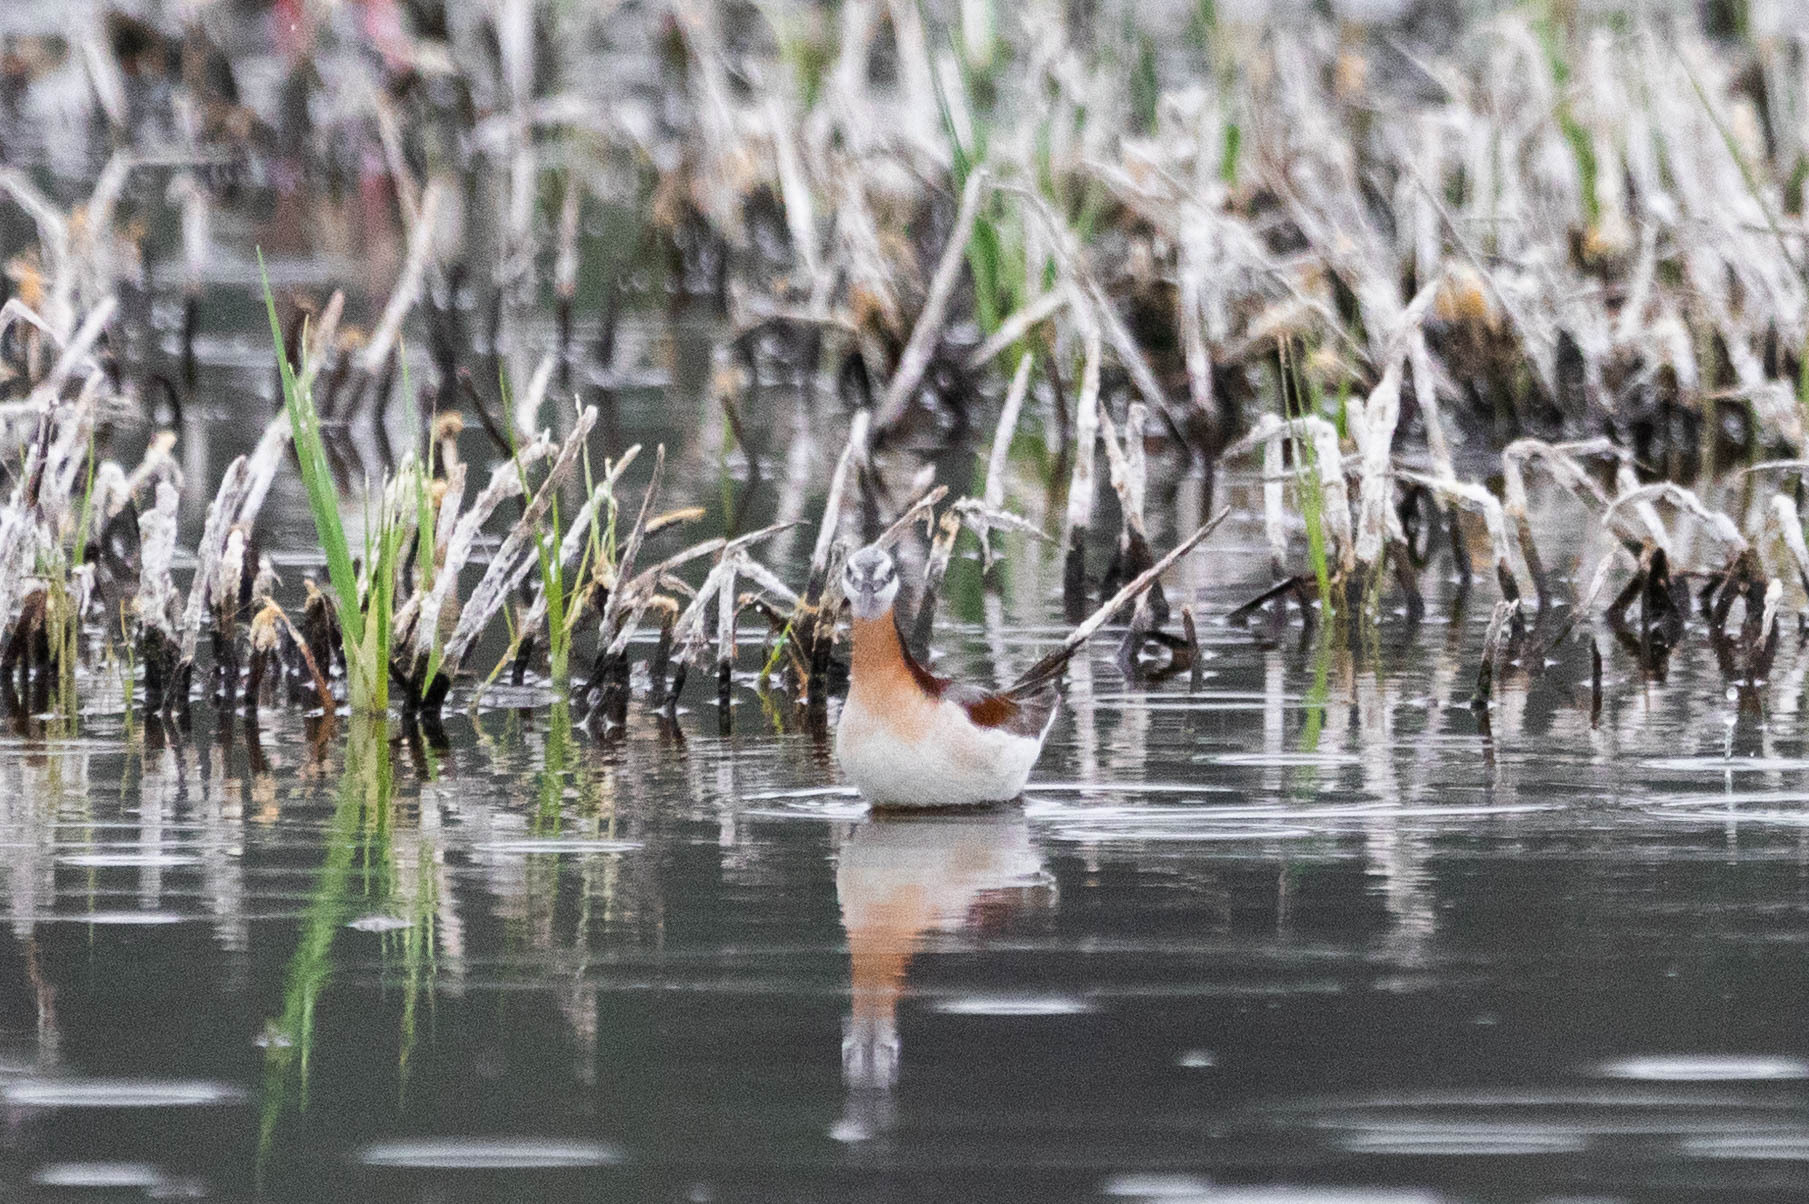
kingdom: Animalia
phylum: Chordata
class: Aves
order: Charadriiformes
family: Scolopacidae
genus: Phalaropus
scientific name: Phalaropus tricolor
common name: Wilson's phalarope
